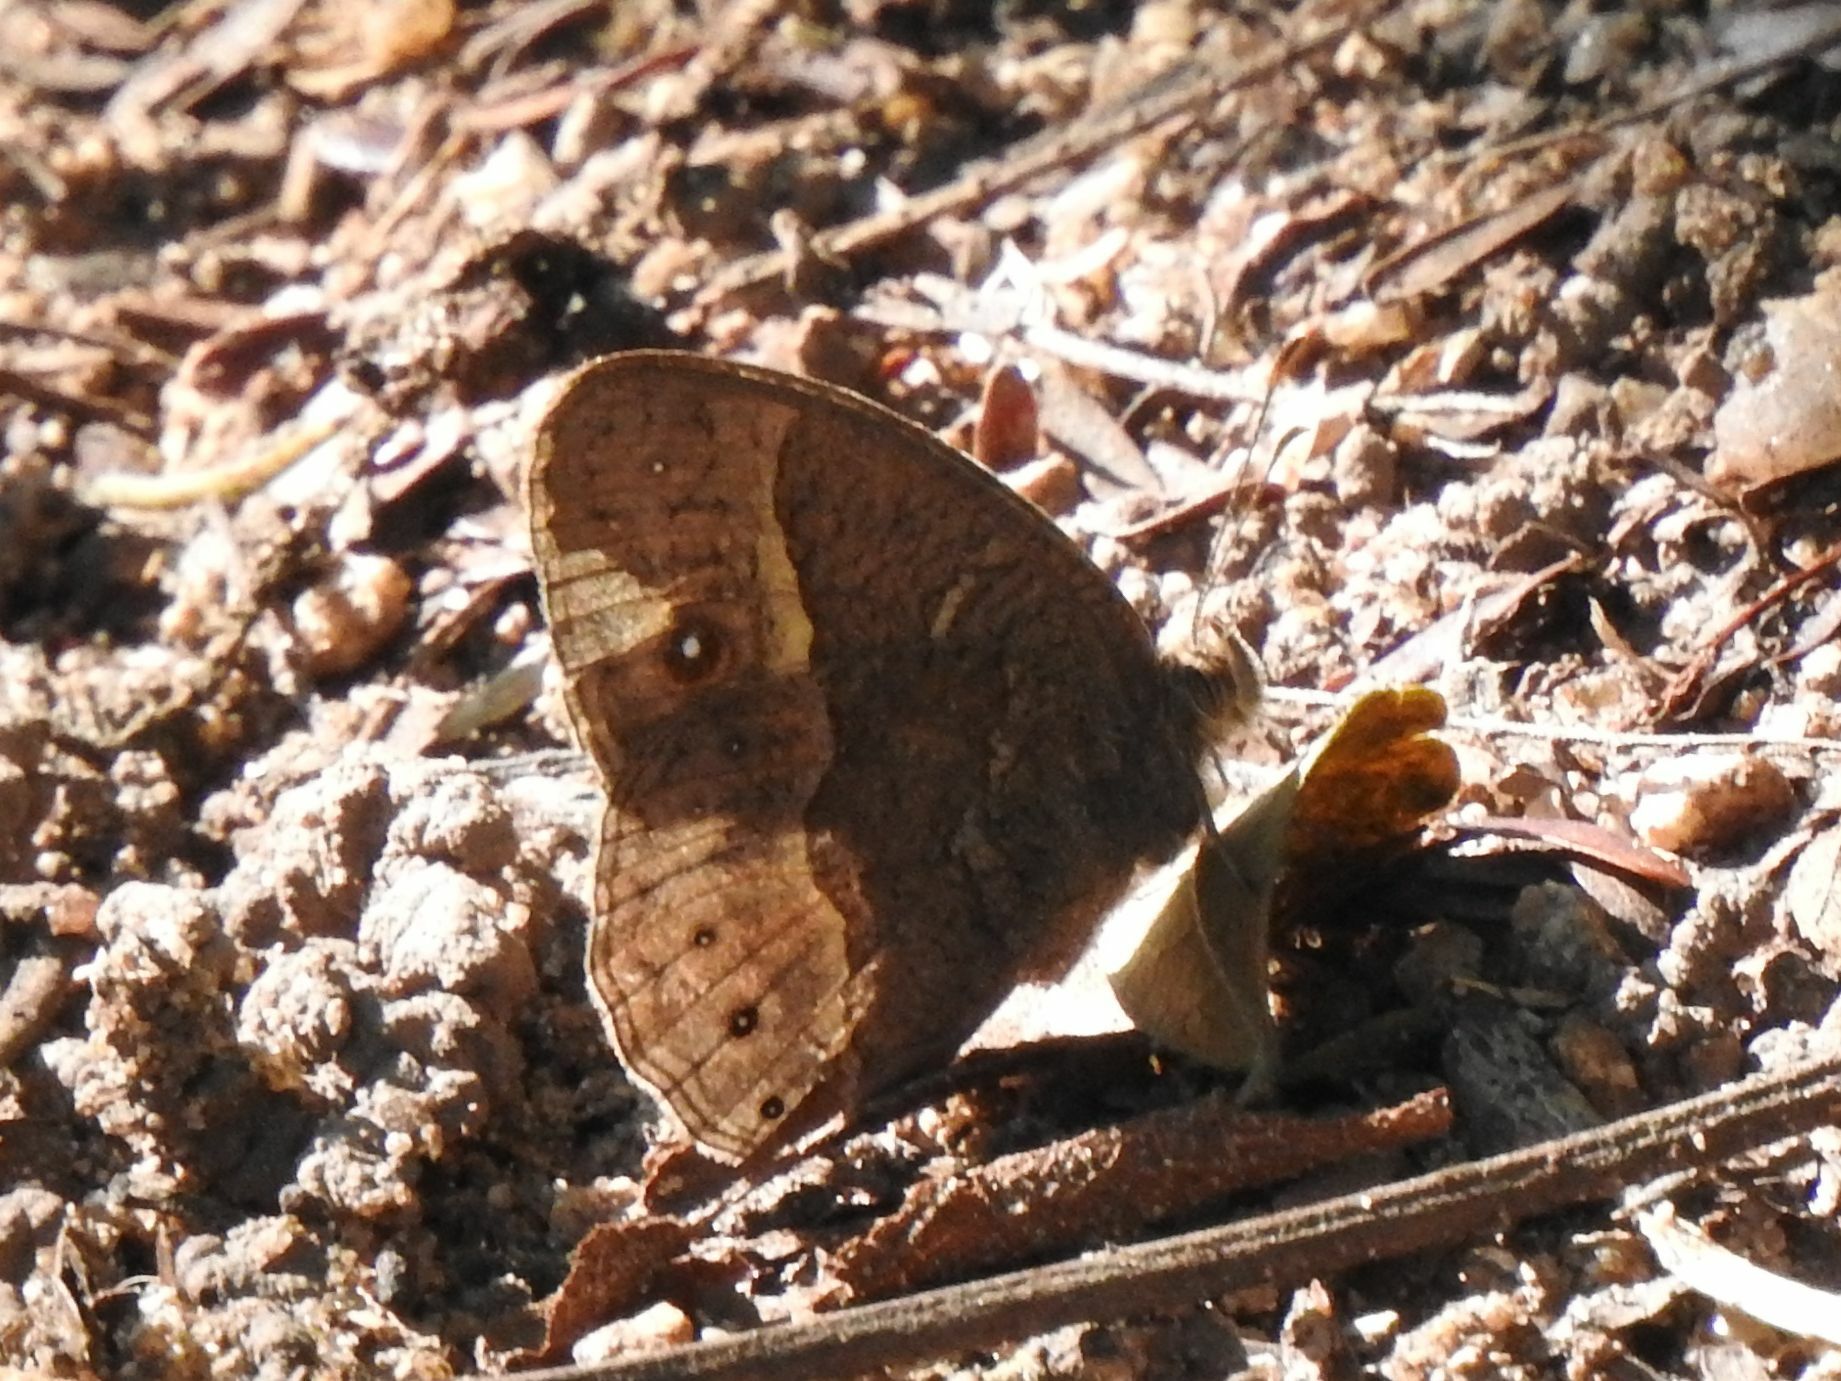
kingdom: Animalia
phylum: Arthropoda
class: Insecta
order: Lepidoptera
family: Nymphalidae
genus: Mycalesis
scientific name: Mycalesis anynana
